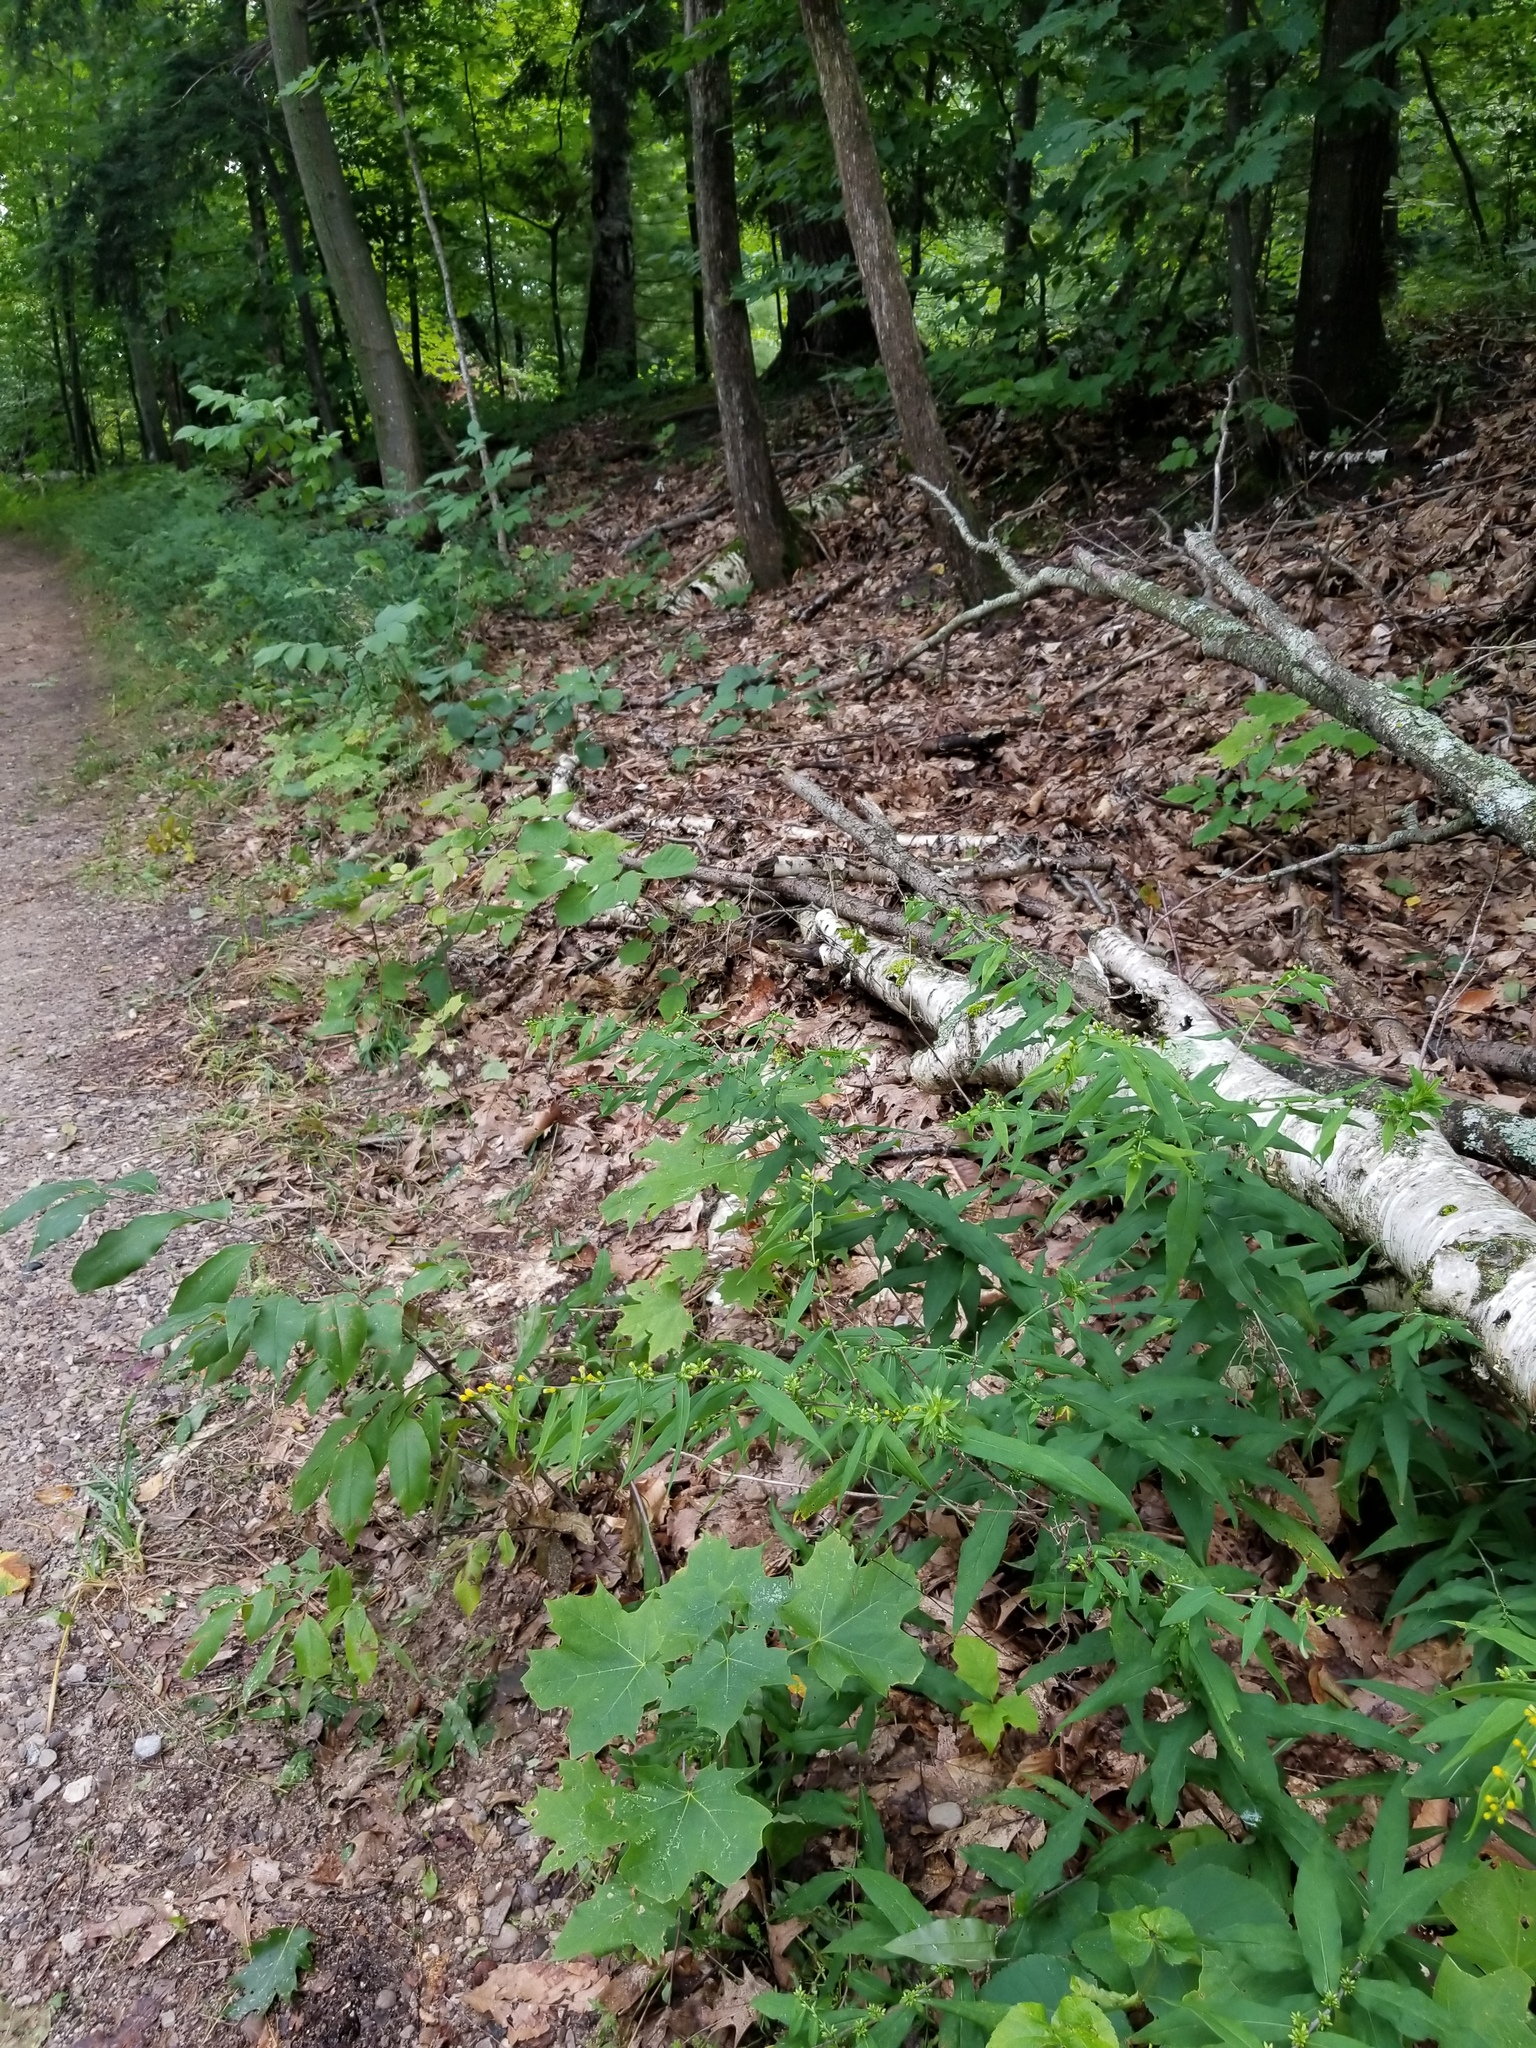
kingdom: Plantae
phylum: Tracheophyta
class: Magnoliopsida
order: Asterales
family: Asteraceae
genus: Solidago
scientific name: Solidago caesia
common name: Woodland goldenrod
